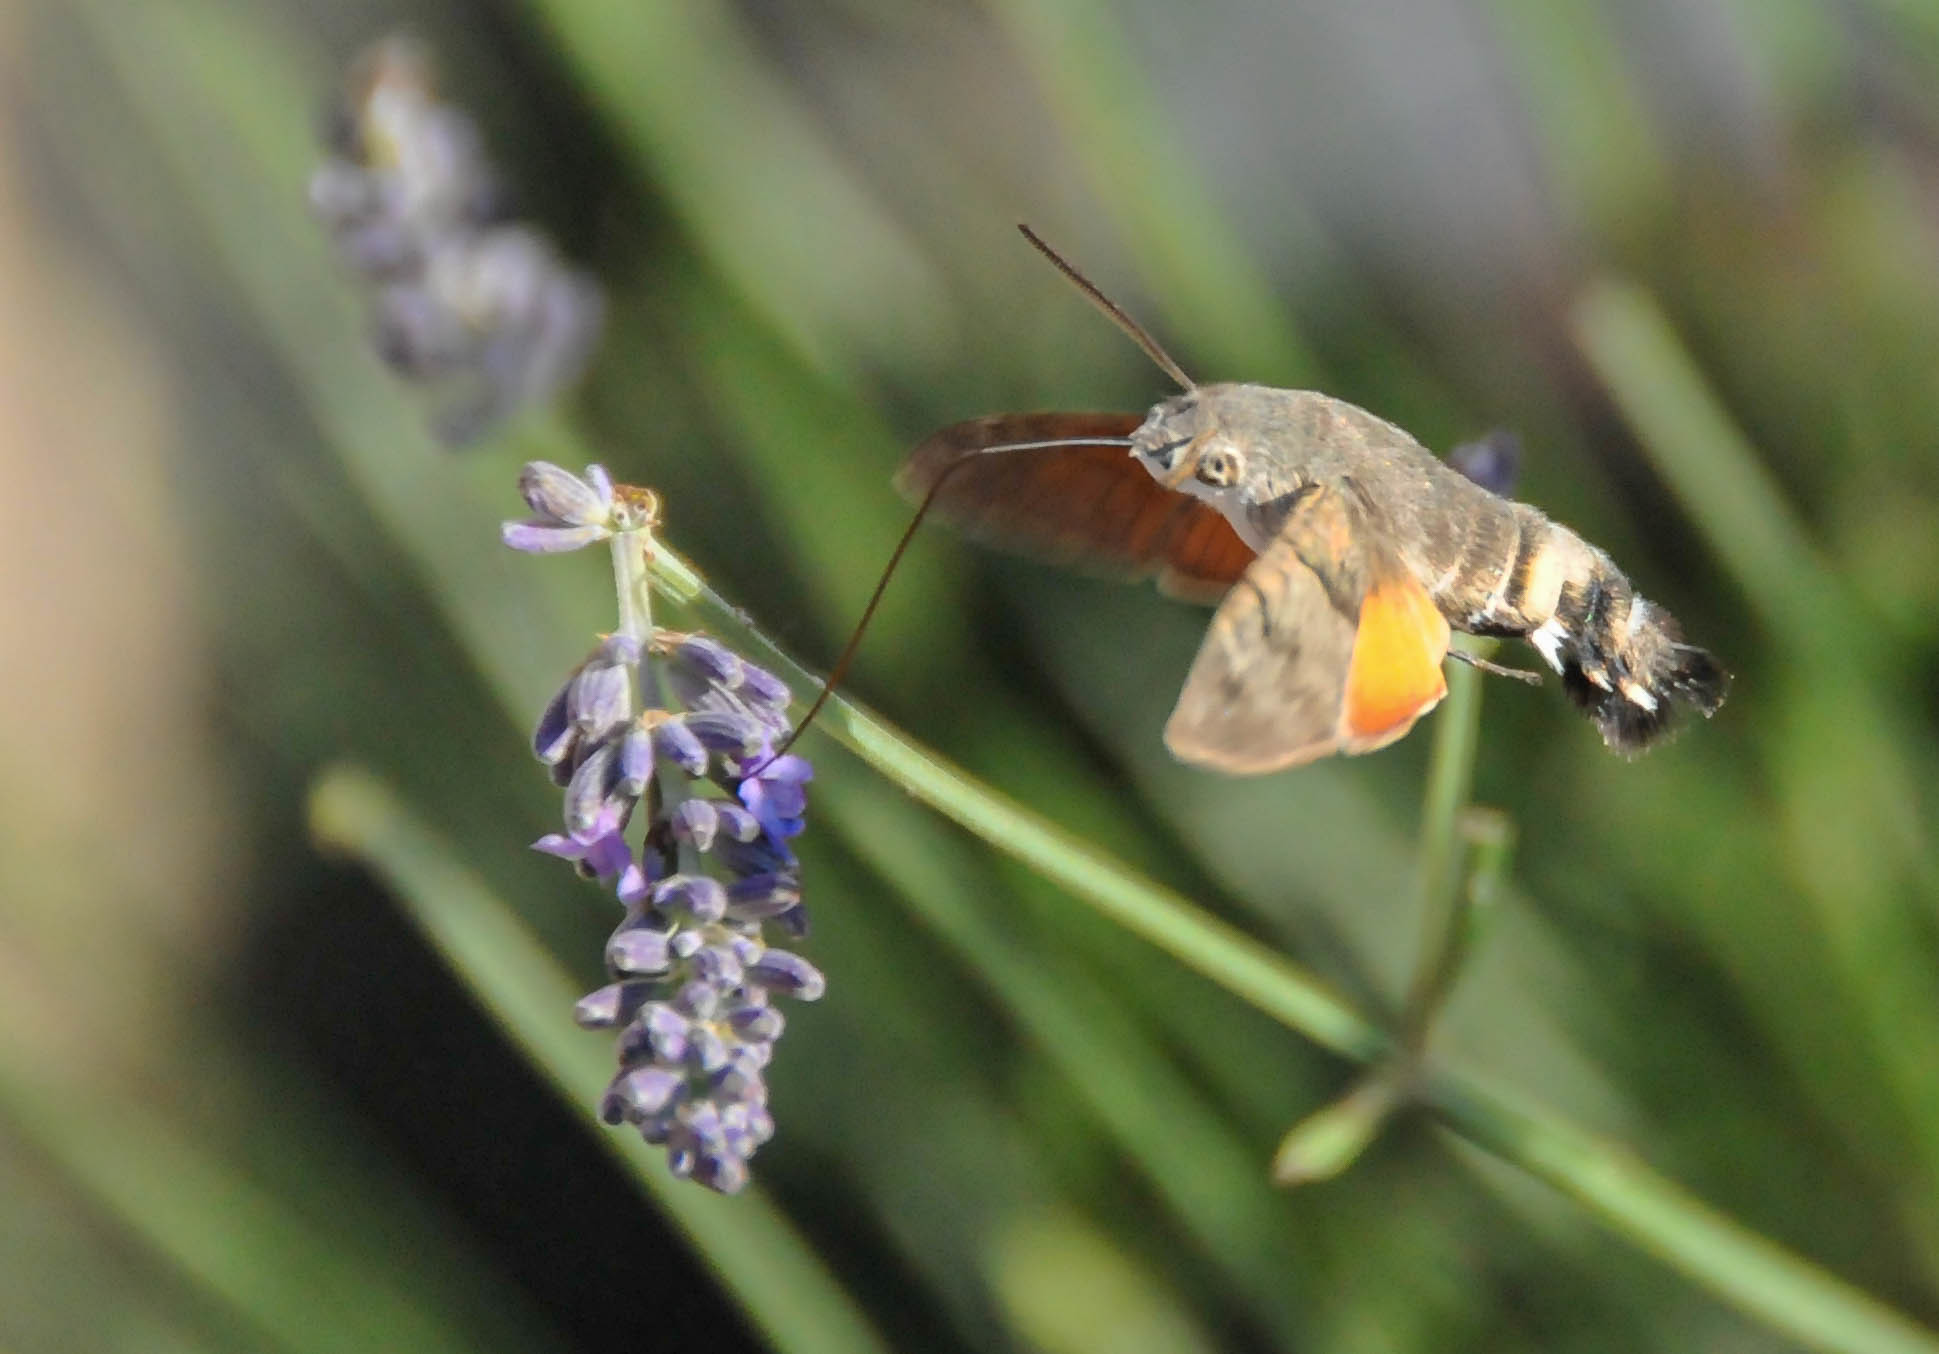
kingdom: Animalia
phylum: Arthropoda
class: Insecta
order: Lepidoptera
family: Sphingidae
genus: Macroglossum
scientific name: Macroglossum stellatarum
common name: Humming-bird hawk-moth
